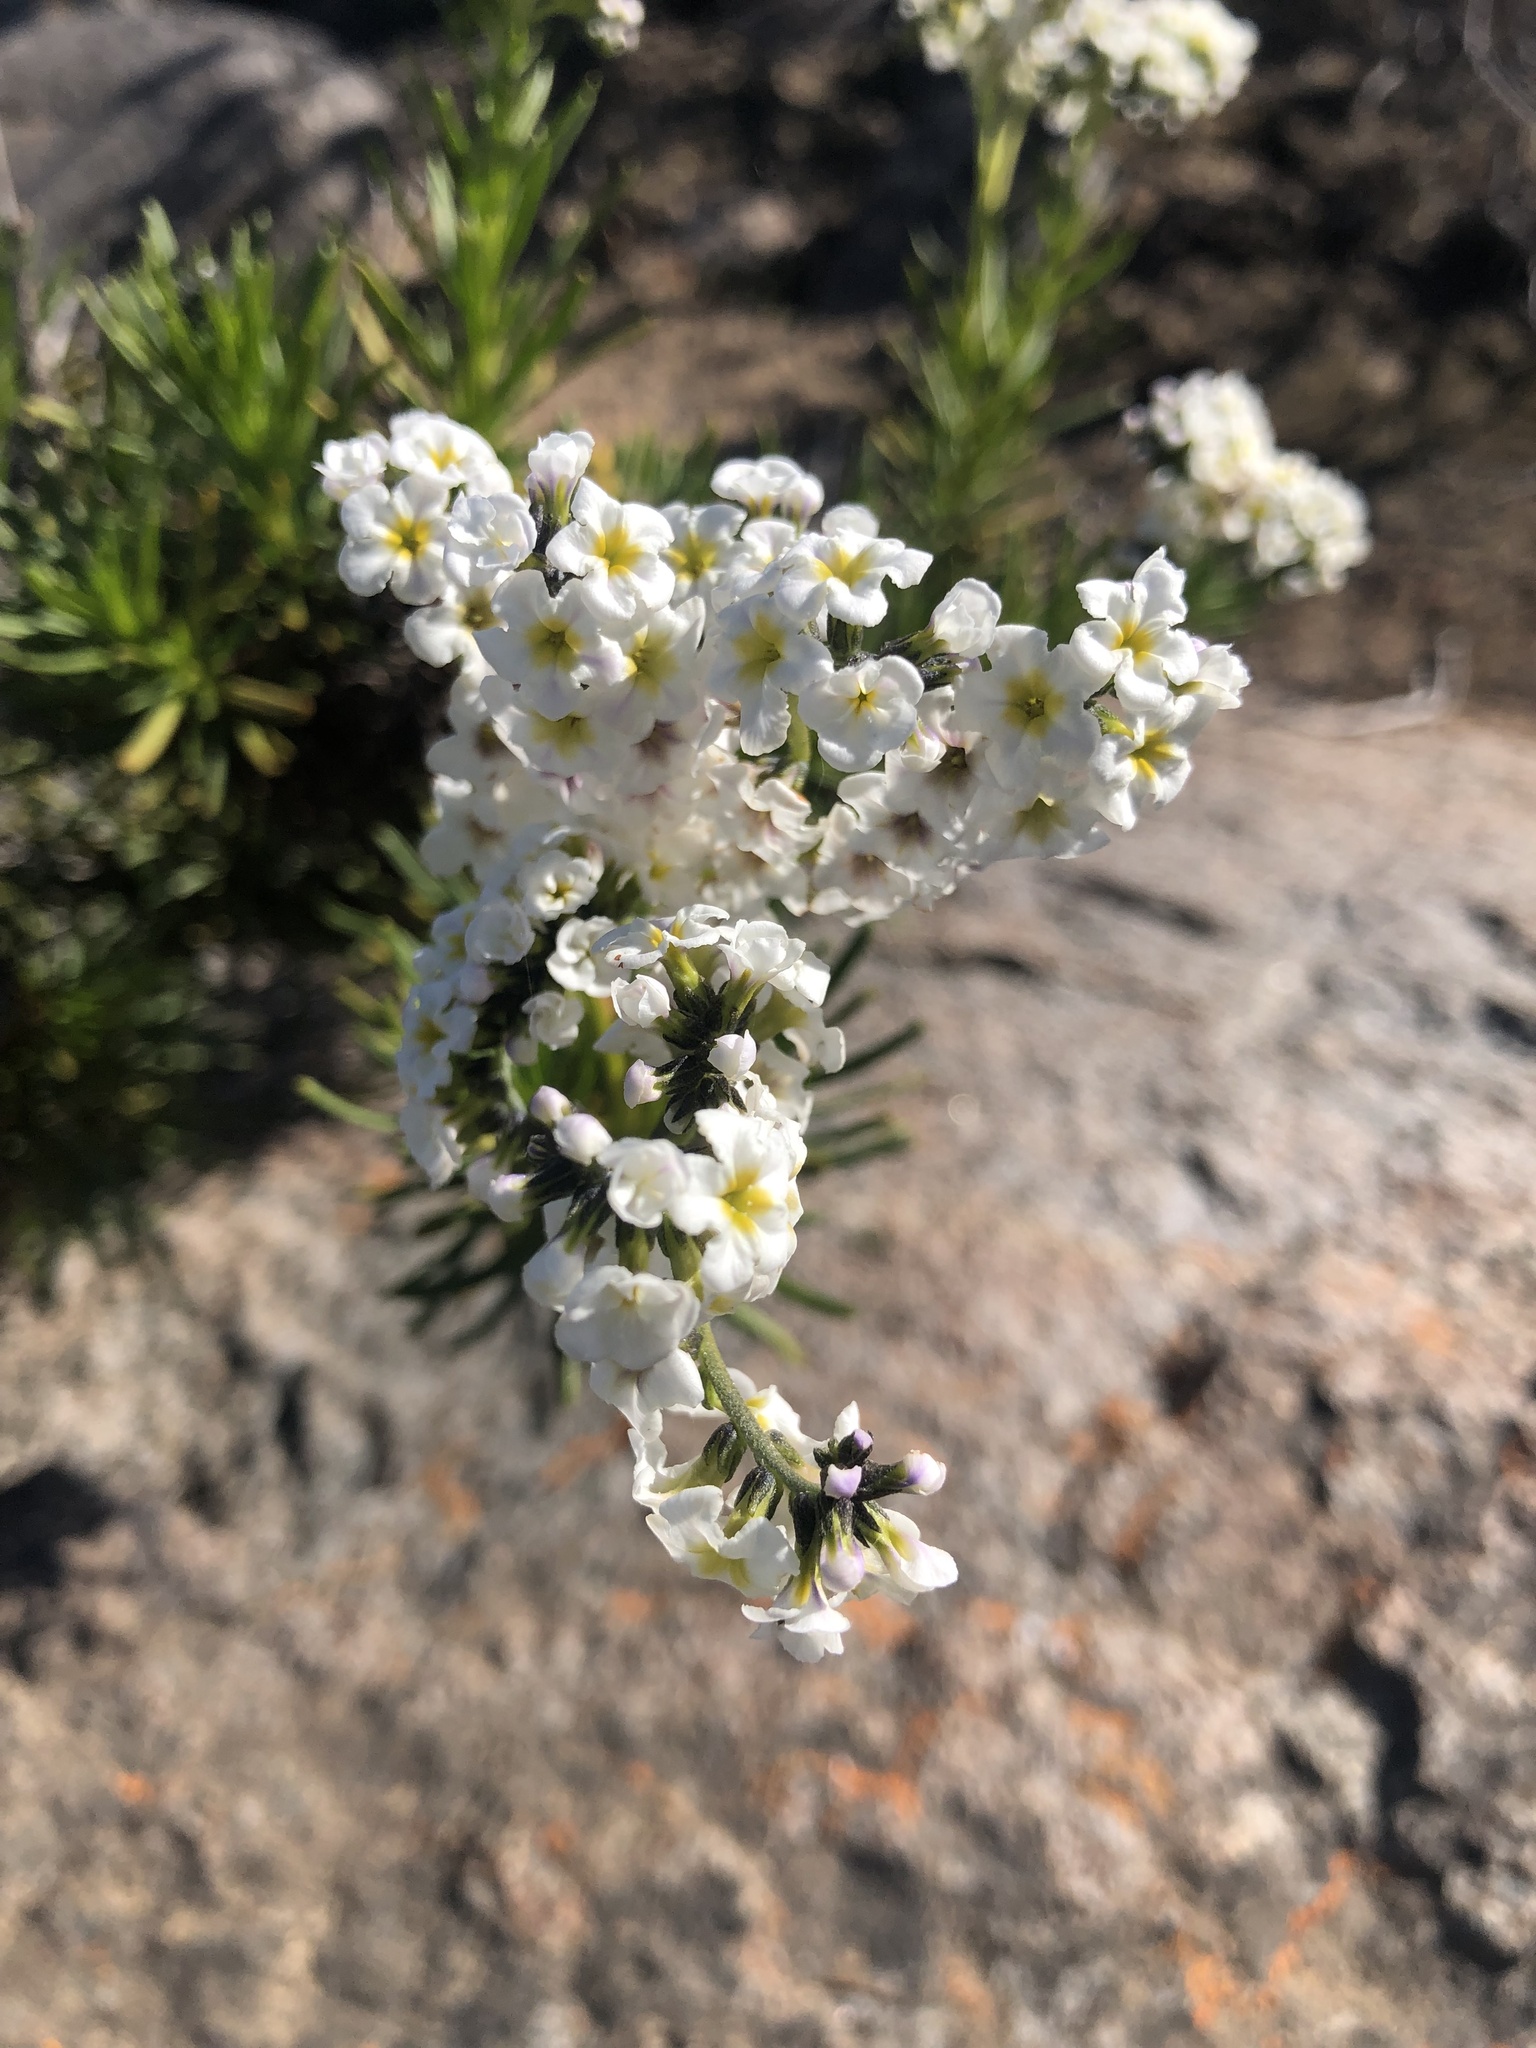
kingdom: Plantae
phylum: Tracheophyta
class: Magnoliopsida
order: Boraginales
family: Heliotropiaceae
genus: Heliotropium
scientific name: Heliotropium stenophyllum
